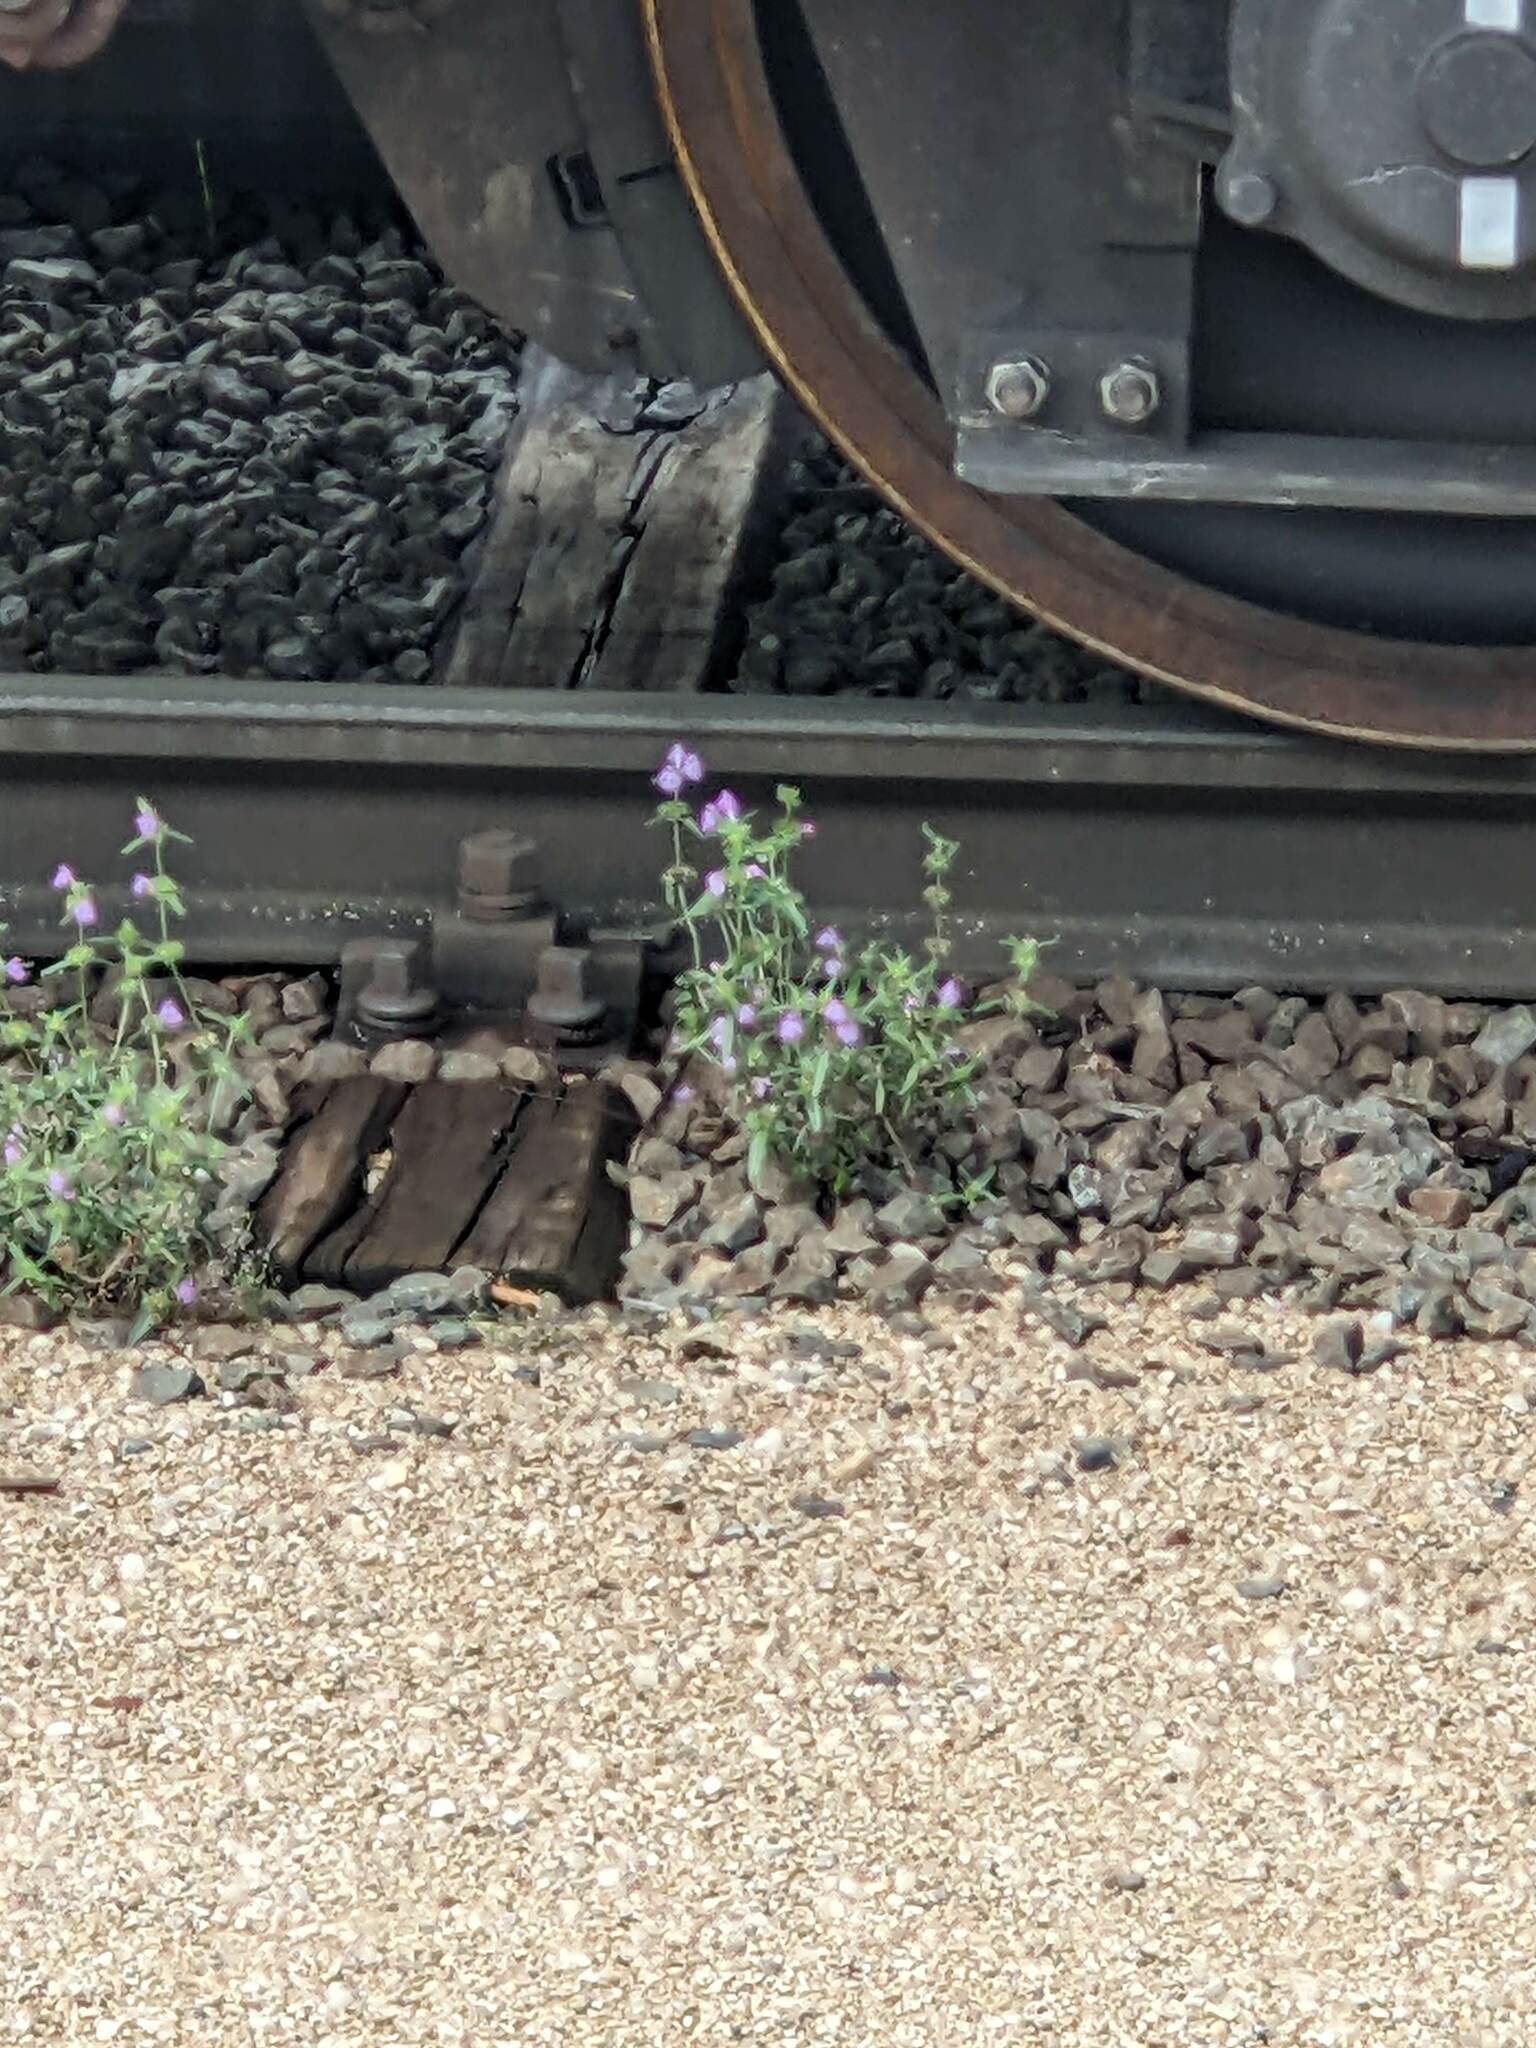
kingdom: Plantae
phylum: Tracheophyta
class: Magnoliopsida
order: Lamiales
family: Lamiaceae
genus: Galeopsis
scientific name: Galeopsis angustifolia
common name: Red hemp-nettle
